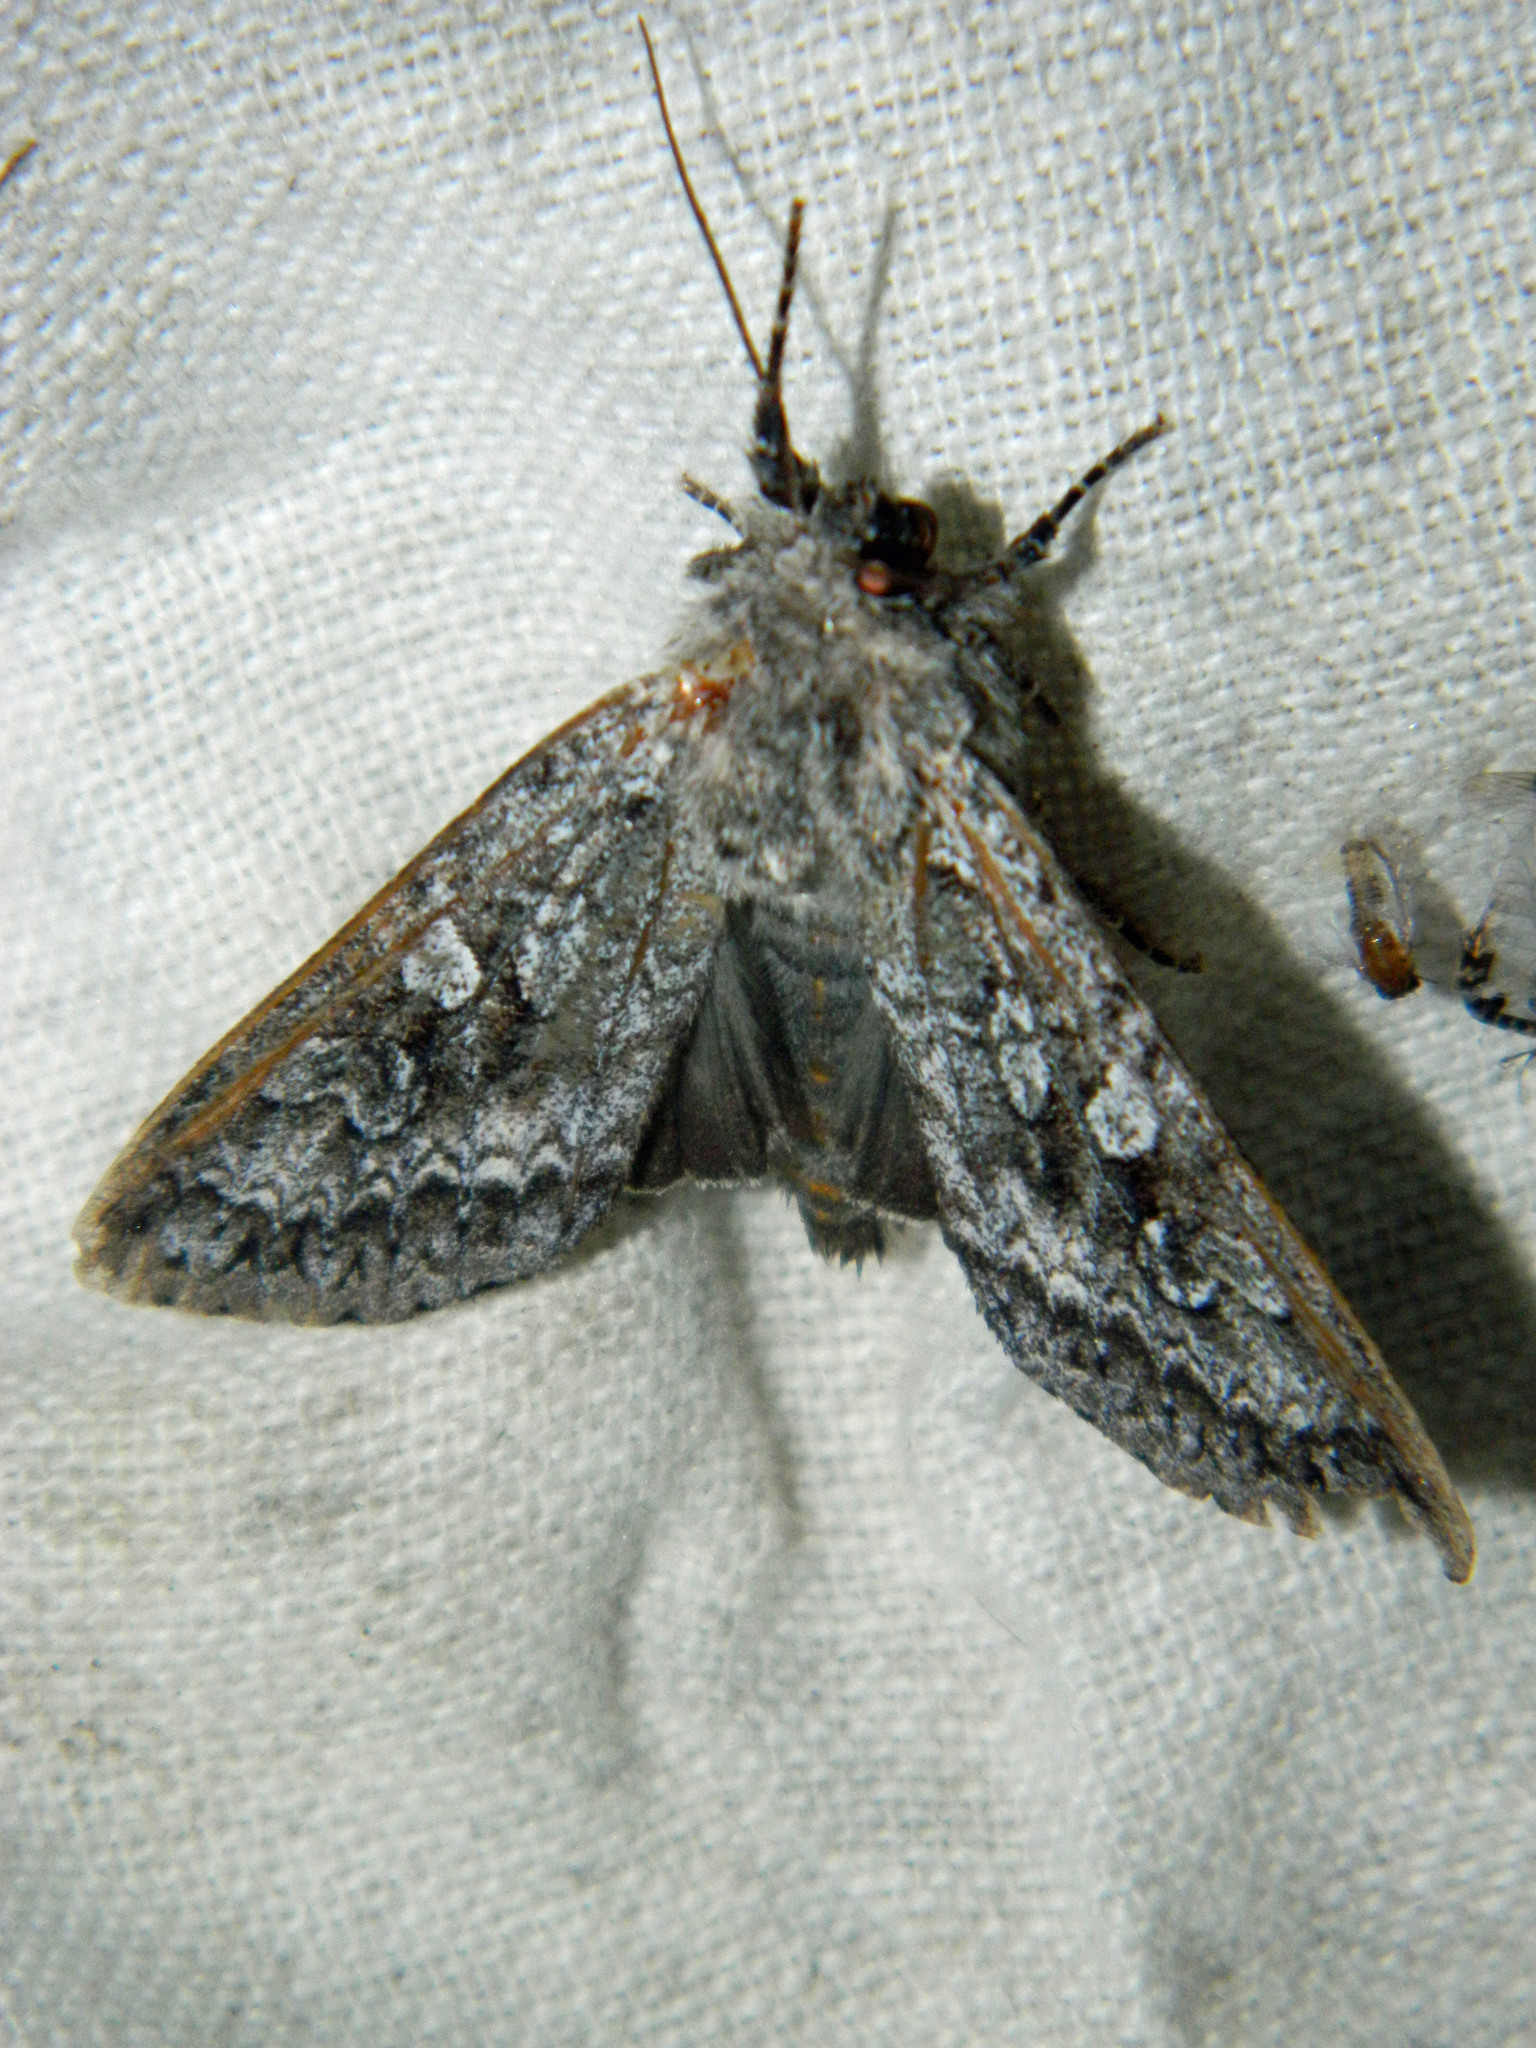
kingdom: Animalia
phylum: Arthropoda
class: Insecta
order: Lepidoptera
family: Noctuidae
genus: Eurois
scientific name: Eurois occulta
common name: Great brocade
